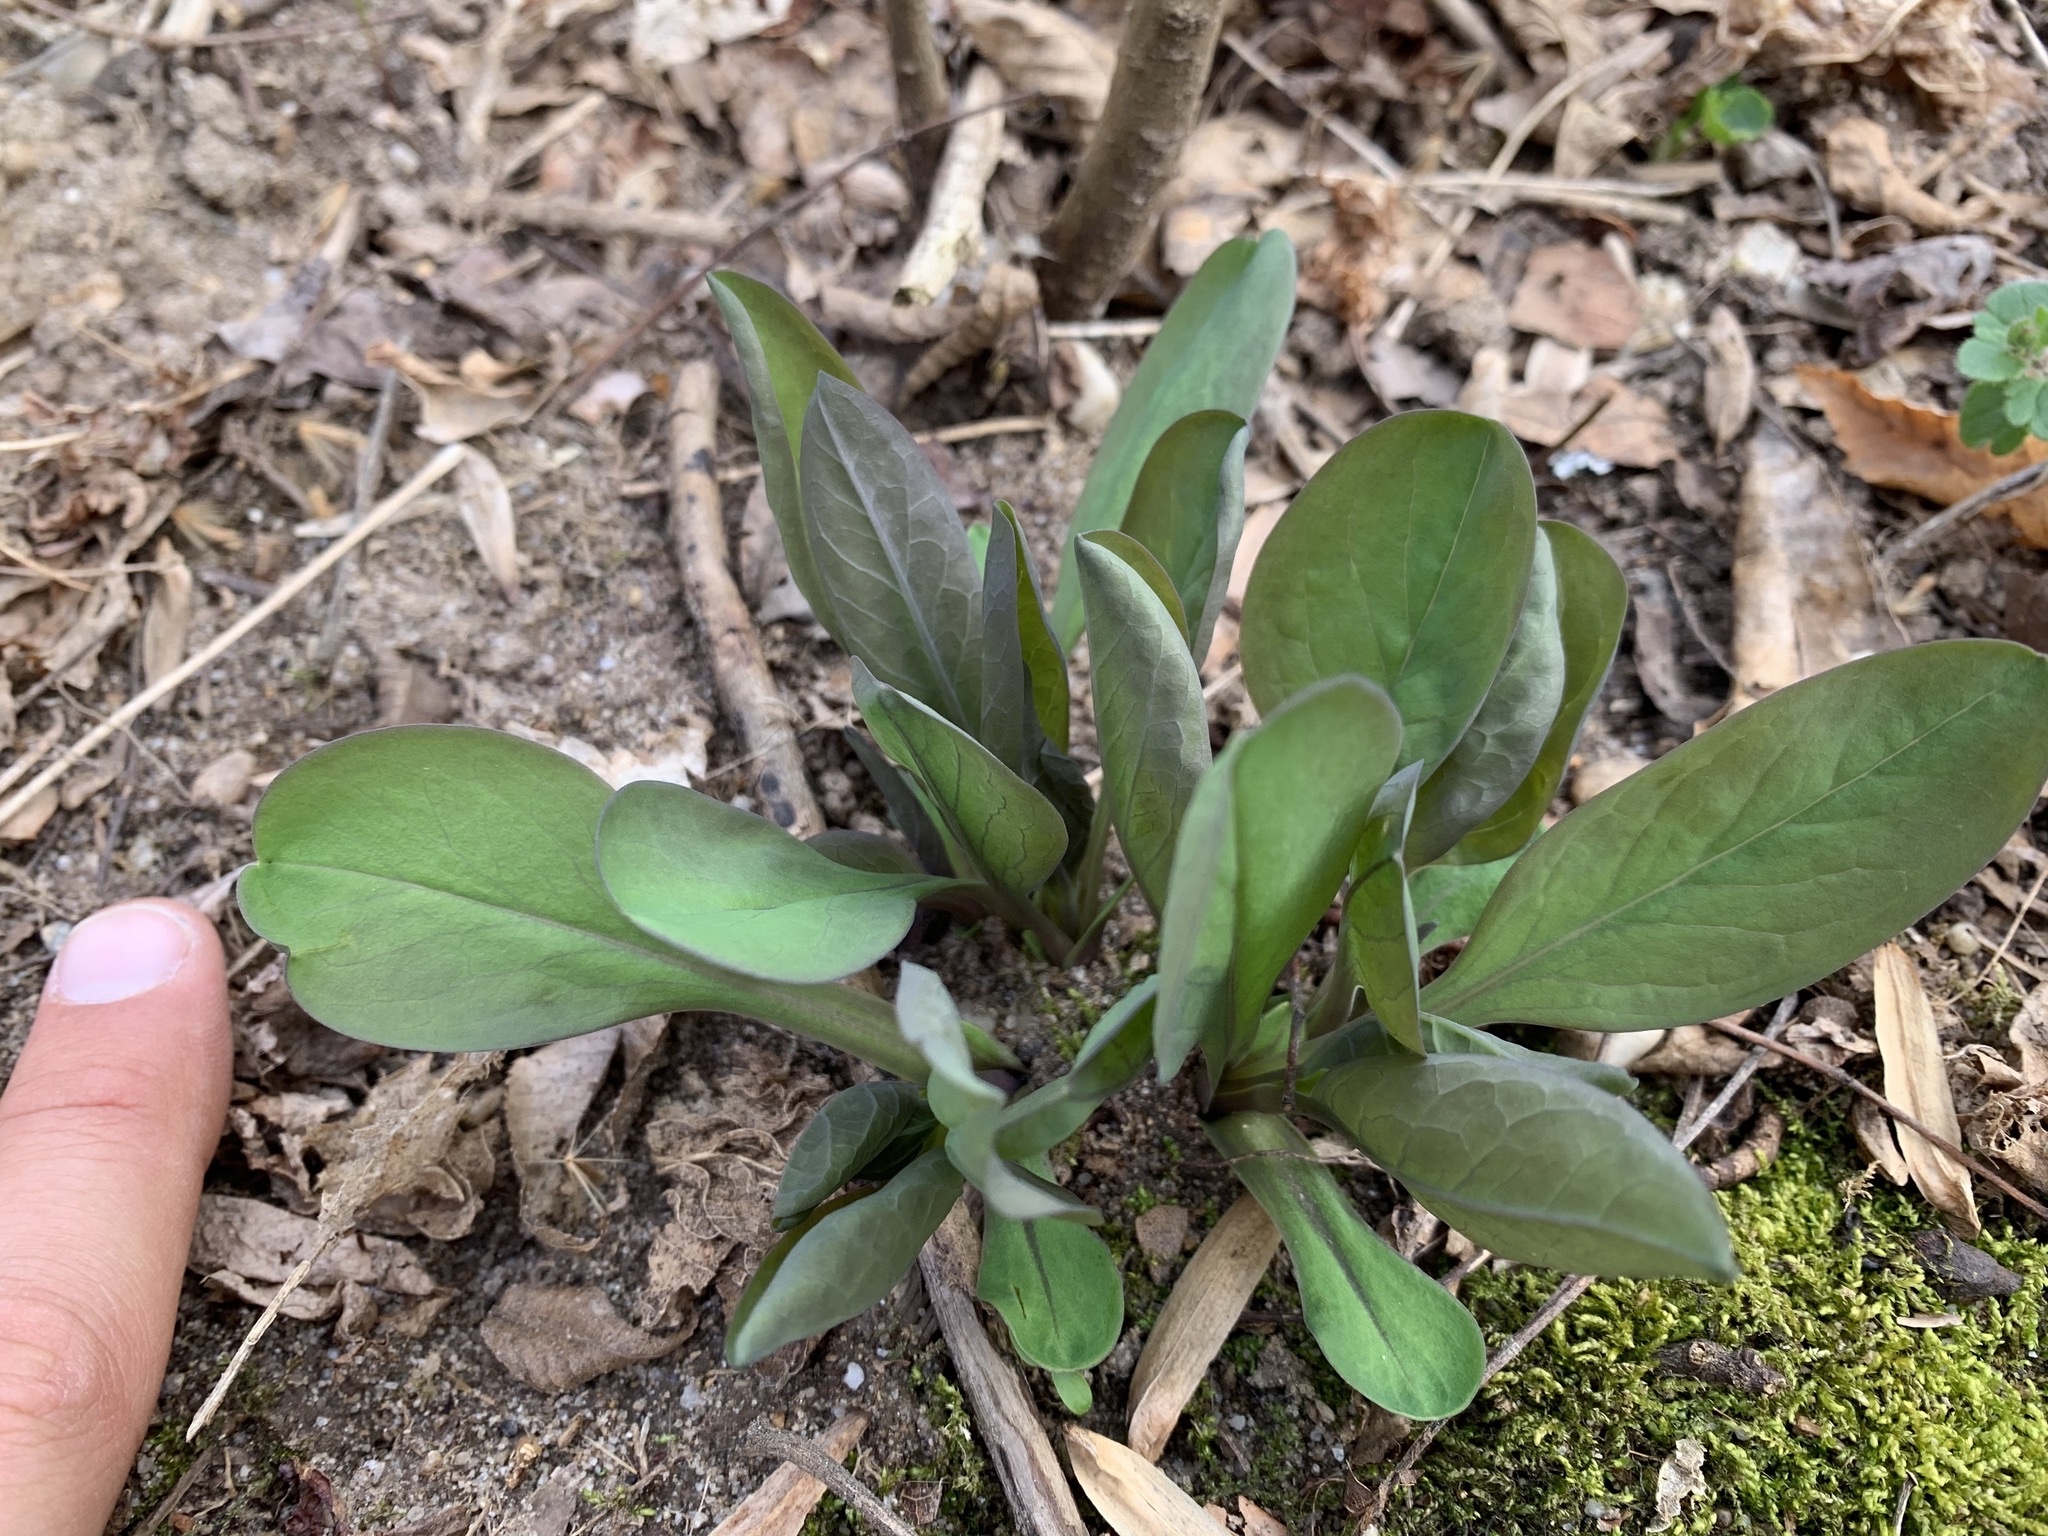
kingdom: Plantae
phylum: Tracheophyta
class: Magnoliopsida
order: Boraginales
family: Boraginaceae
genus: Mertensia
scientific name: Mertensia virginica
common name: Virginia bluebells
